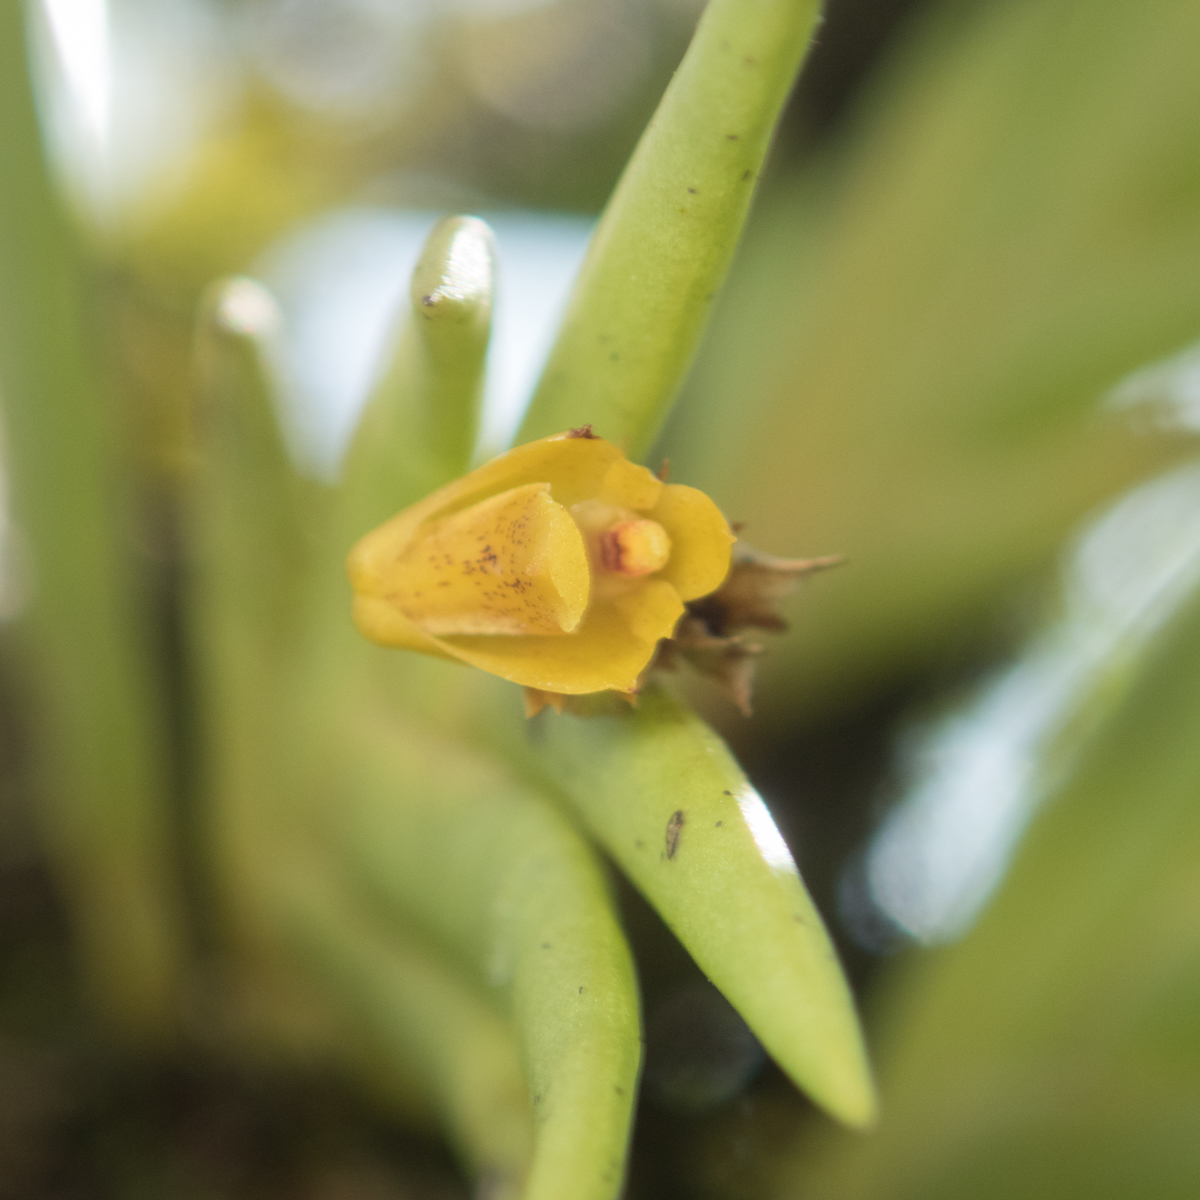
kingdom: Plantae
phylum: Tracheophyta
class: Liliopsida
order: Asparagales
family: Orchidaceae
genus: Oxystophyllum
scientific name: Oxystophyllum carnosum
